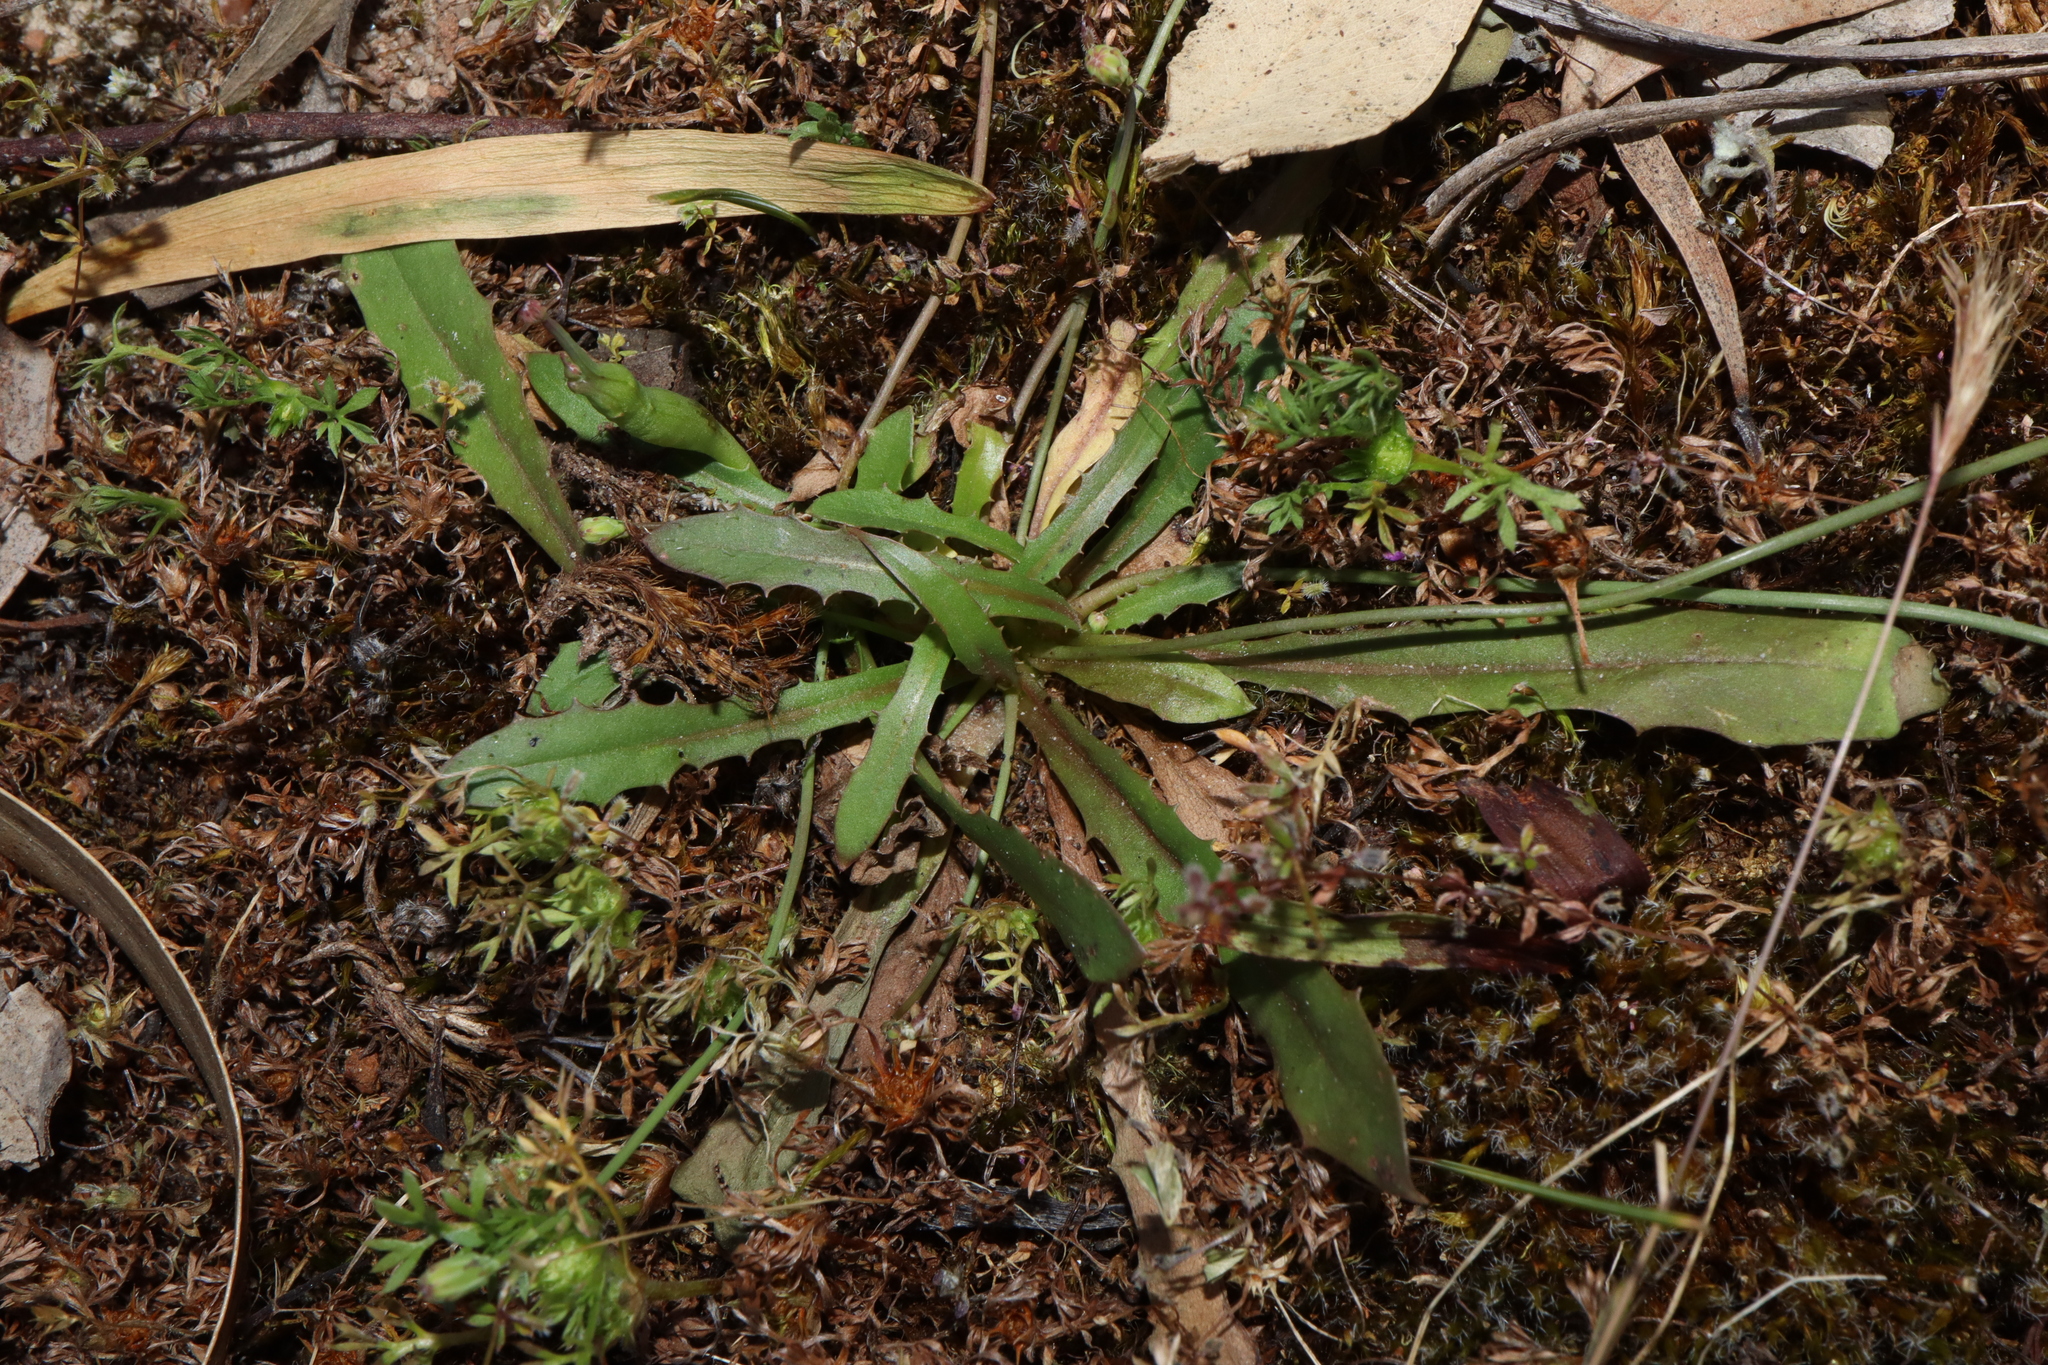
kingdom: Plantae
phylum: Tracheophyta
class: Magnoliopsida
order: Asterales
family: Asteraceae
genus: Hypochaeris
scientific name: Hypochaeris glabra
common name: Smooth catsear
